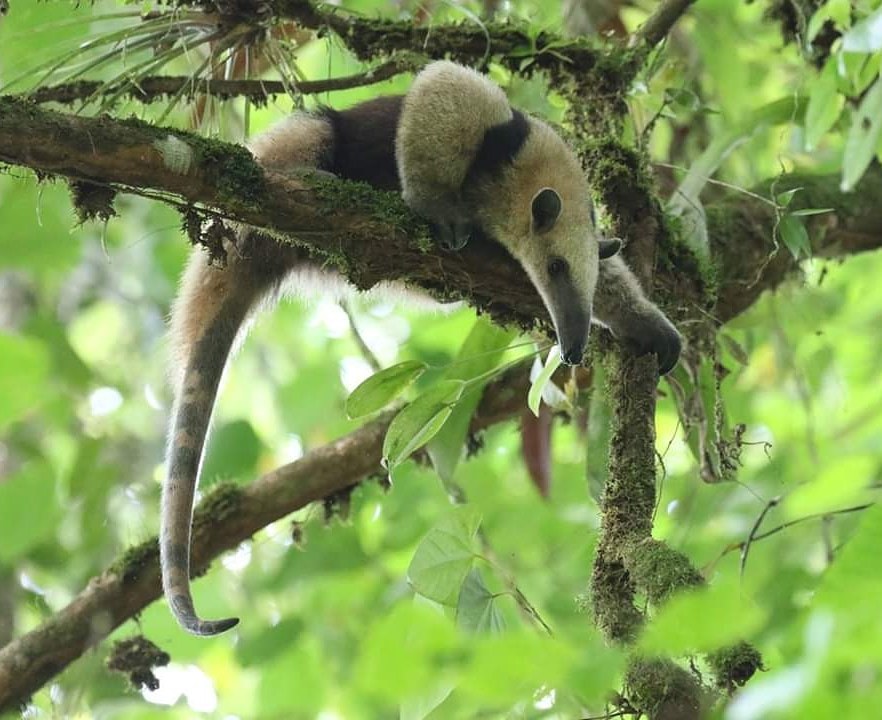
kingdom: Animalia
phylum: Chordata
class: Mammalia
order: Pilosa
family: Myrmecophagidae
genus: Tamandua
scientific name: Tamandua mexicana
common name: Northern tamandua
